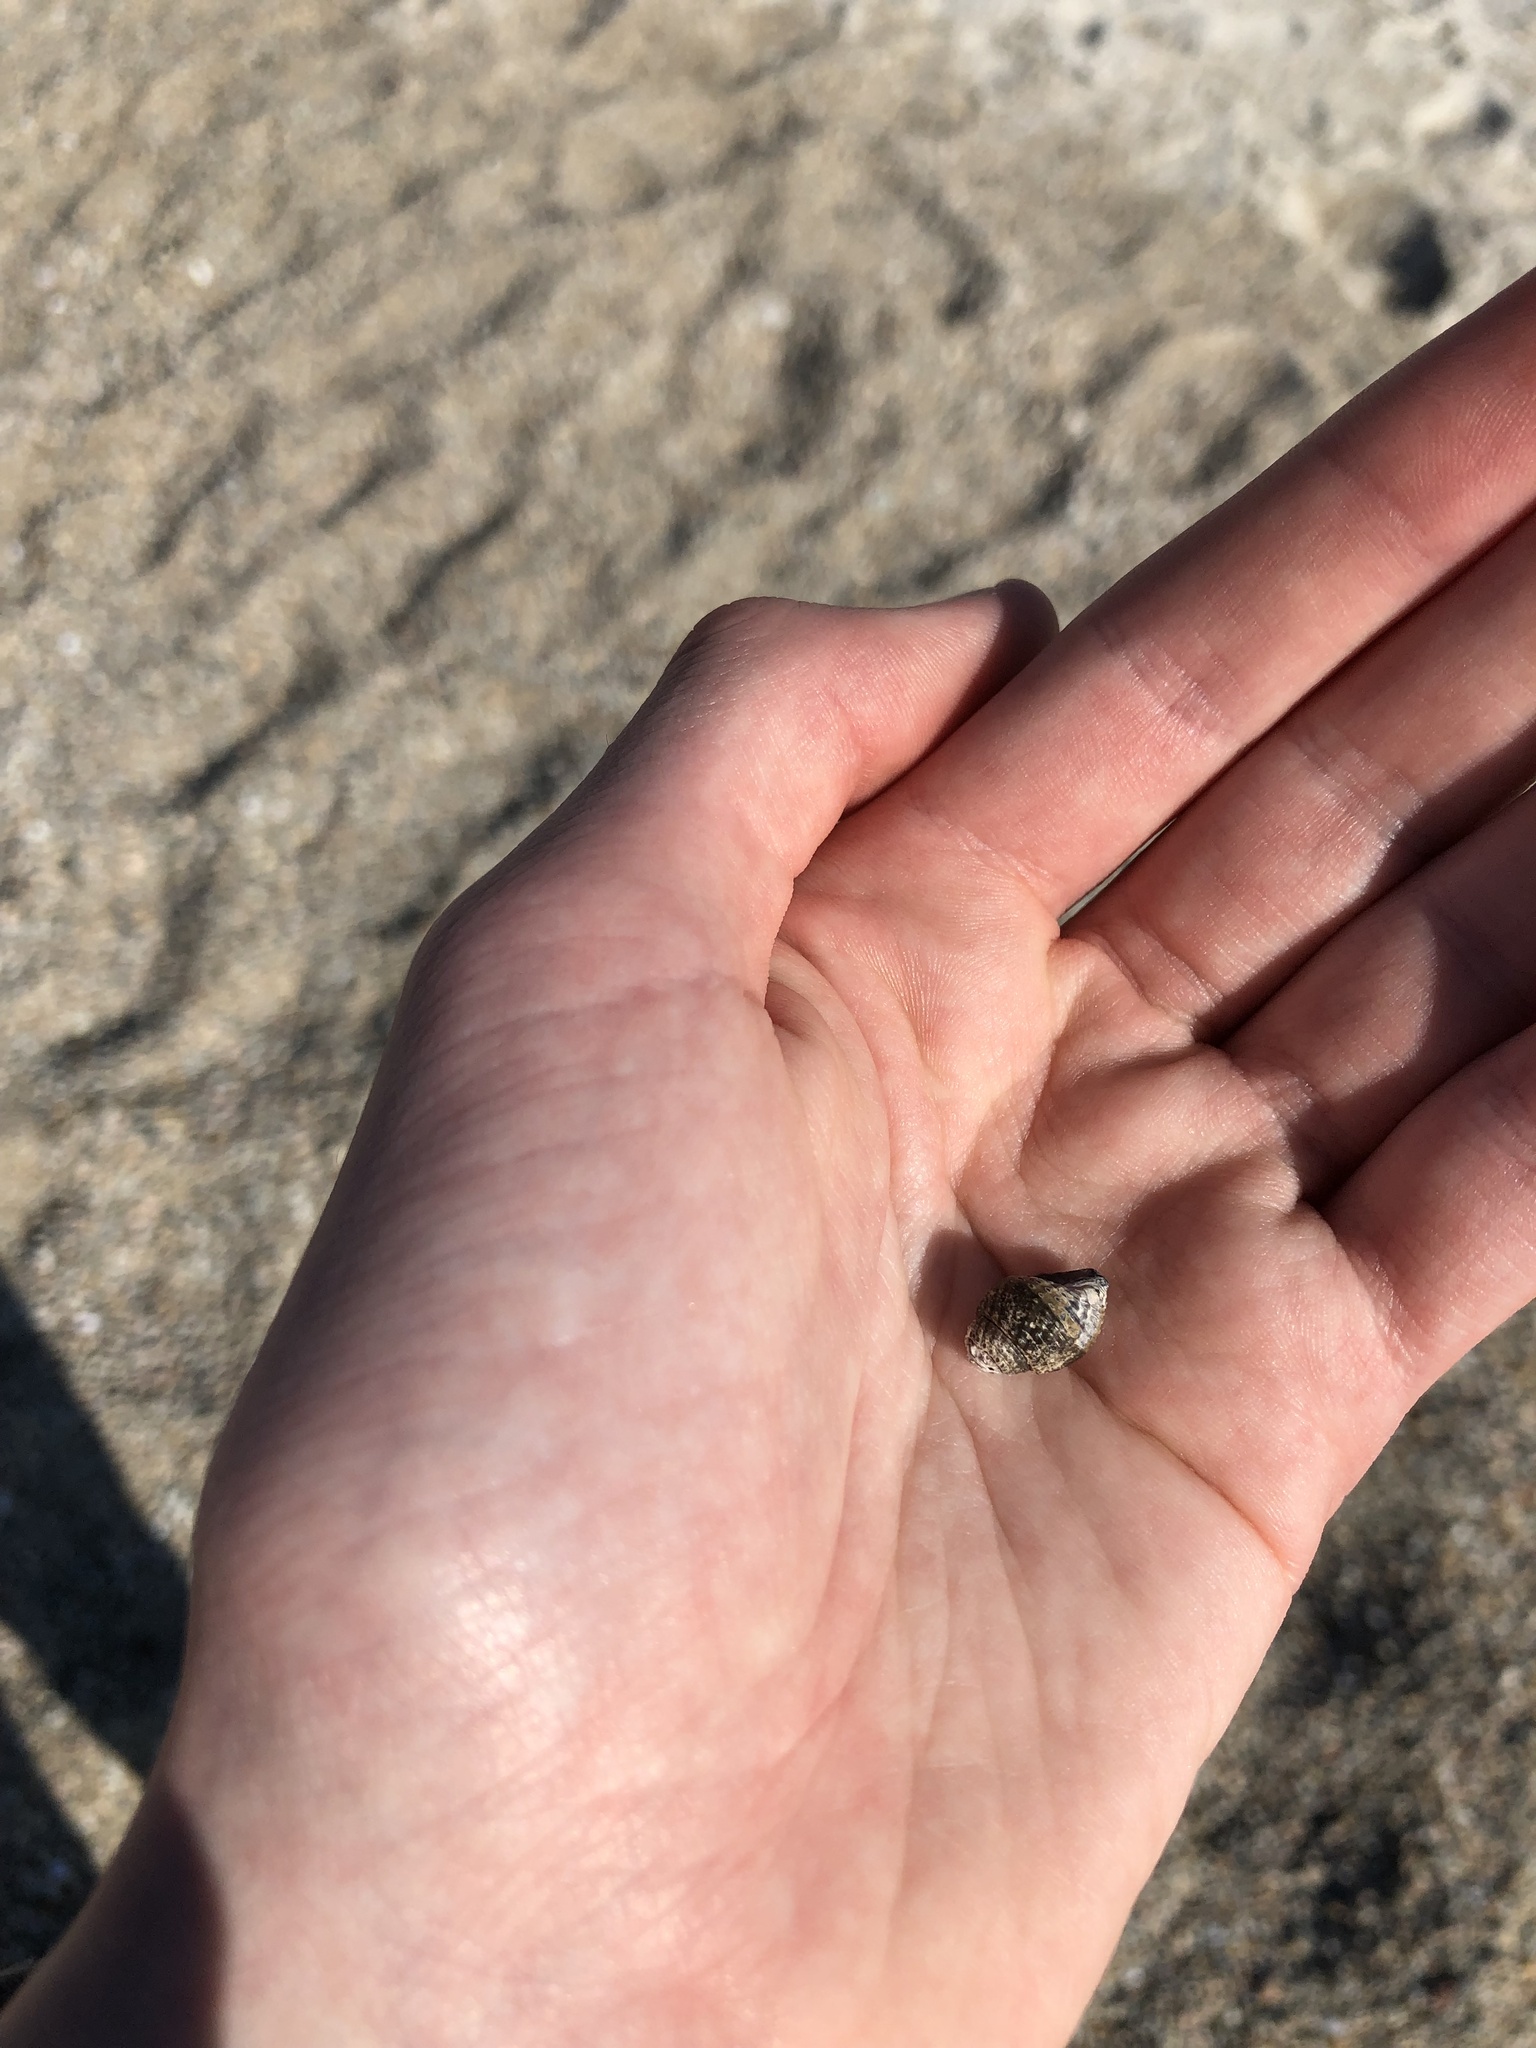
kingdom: Animalia
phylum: Mollusca
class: Gastropoda
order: Neogastropoda
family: Nassariidae
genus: Ilyanassa
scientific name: Ilyanassa obsoleta
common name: Eastern mudsnail
